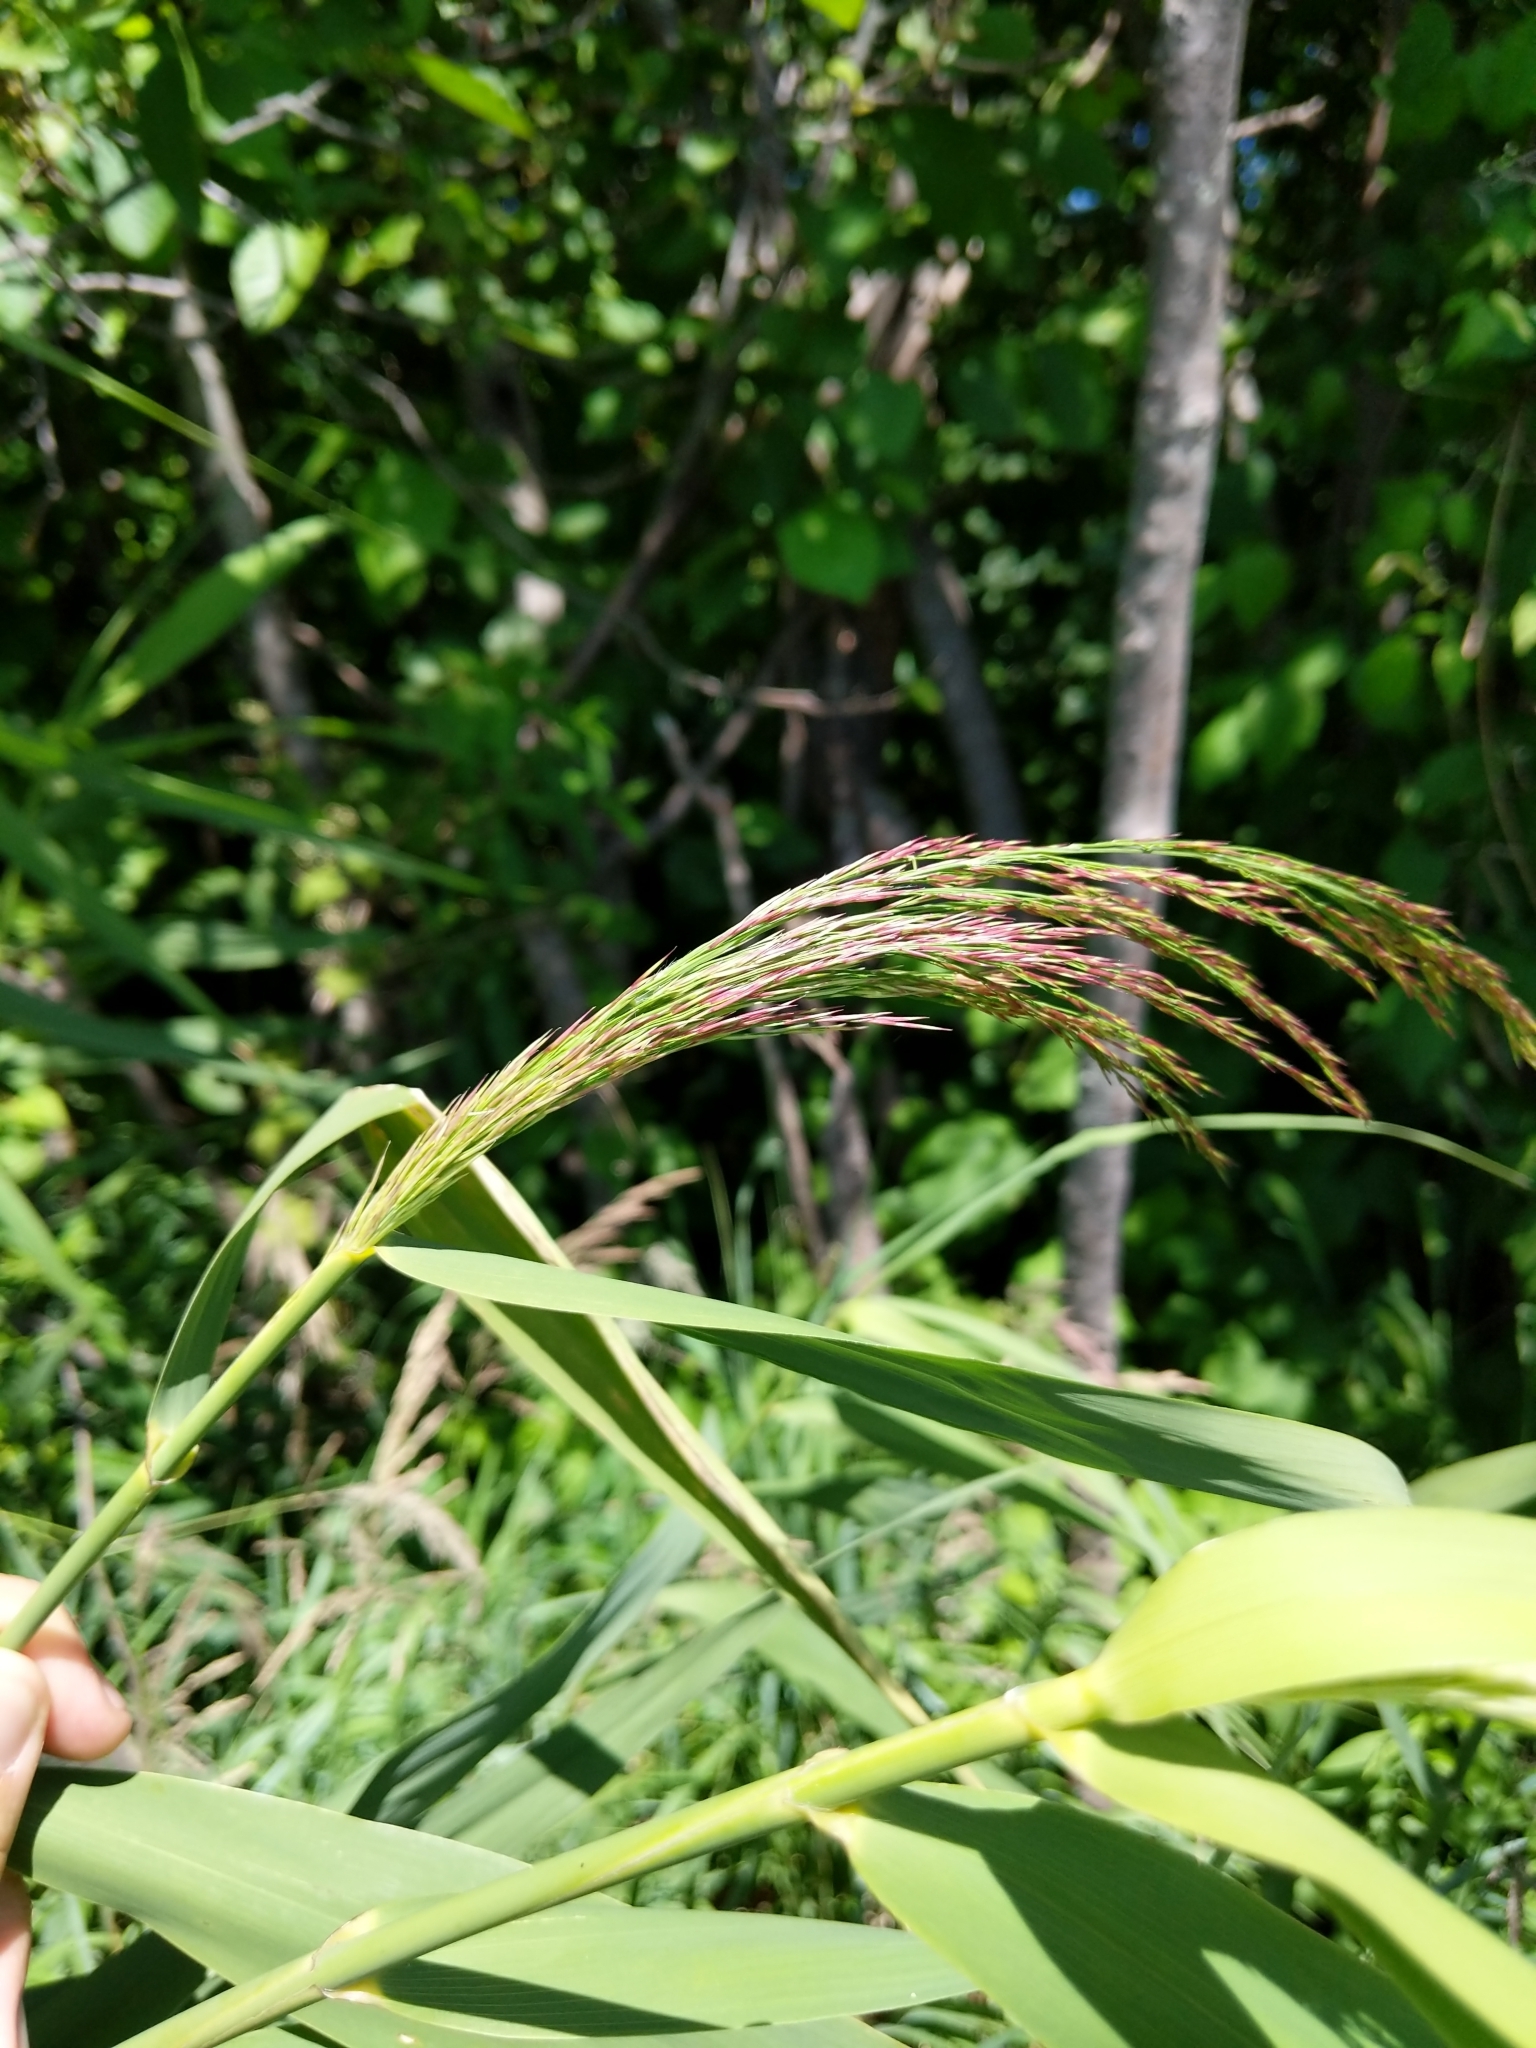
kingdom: Plantae
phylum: Tracheophyta
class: Liliopsida
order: Poales
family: Poaceae
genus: Phragmites
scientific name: Phragmites australis
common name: Common reed
